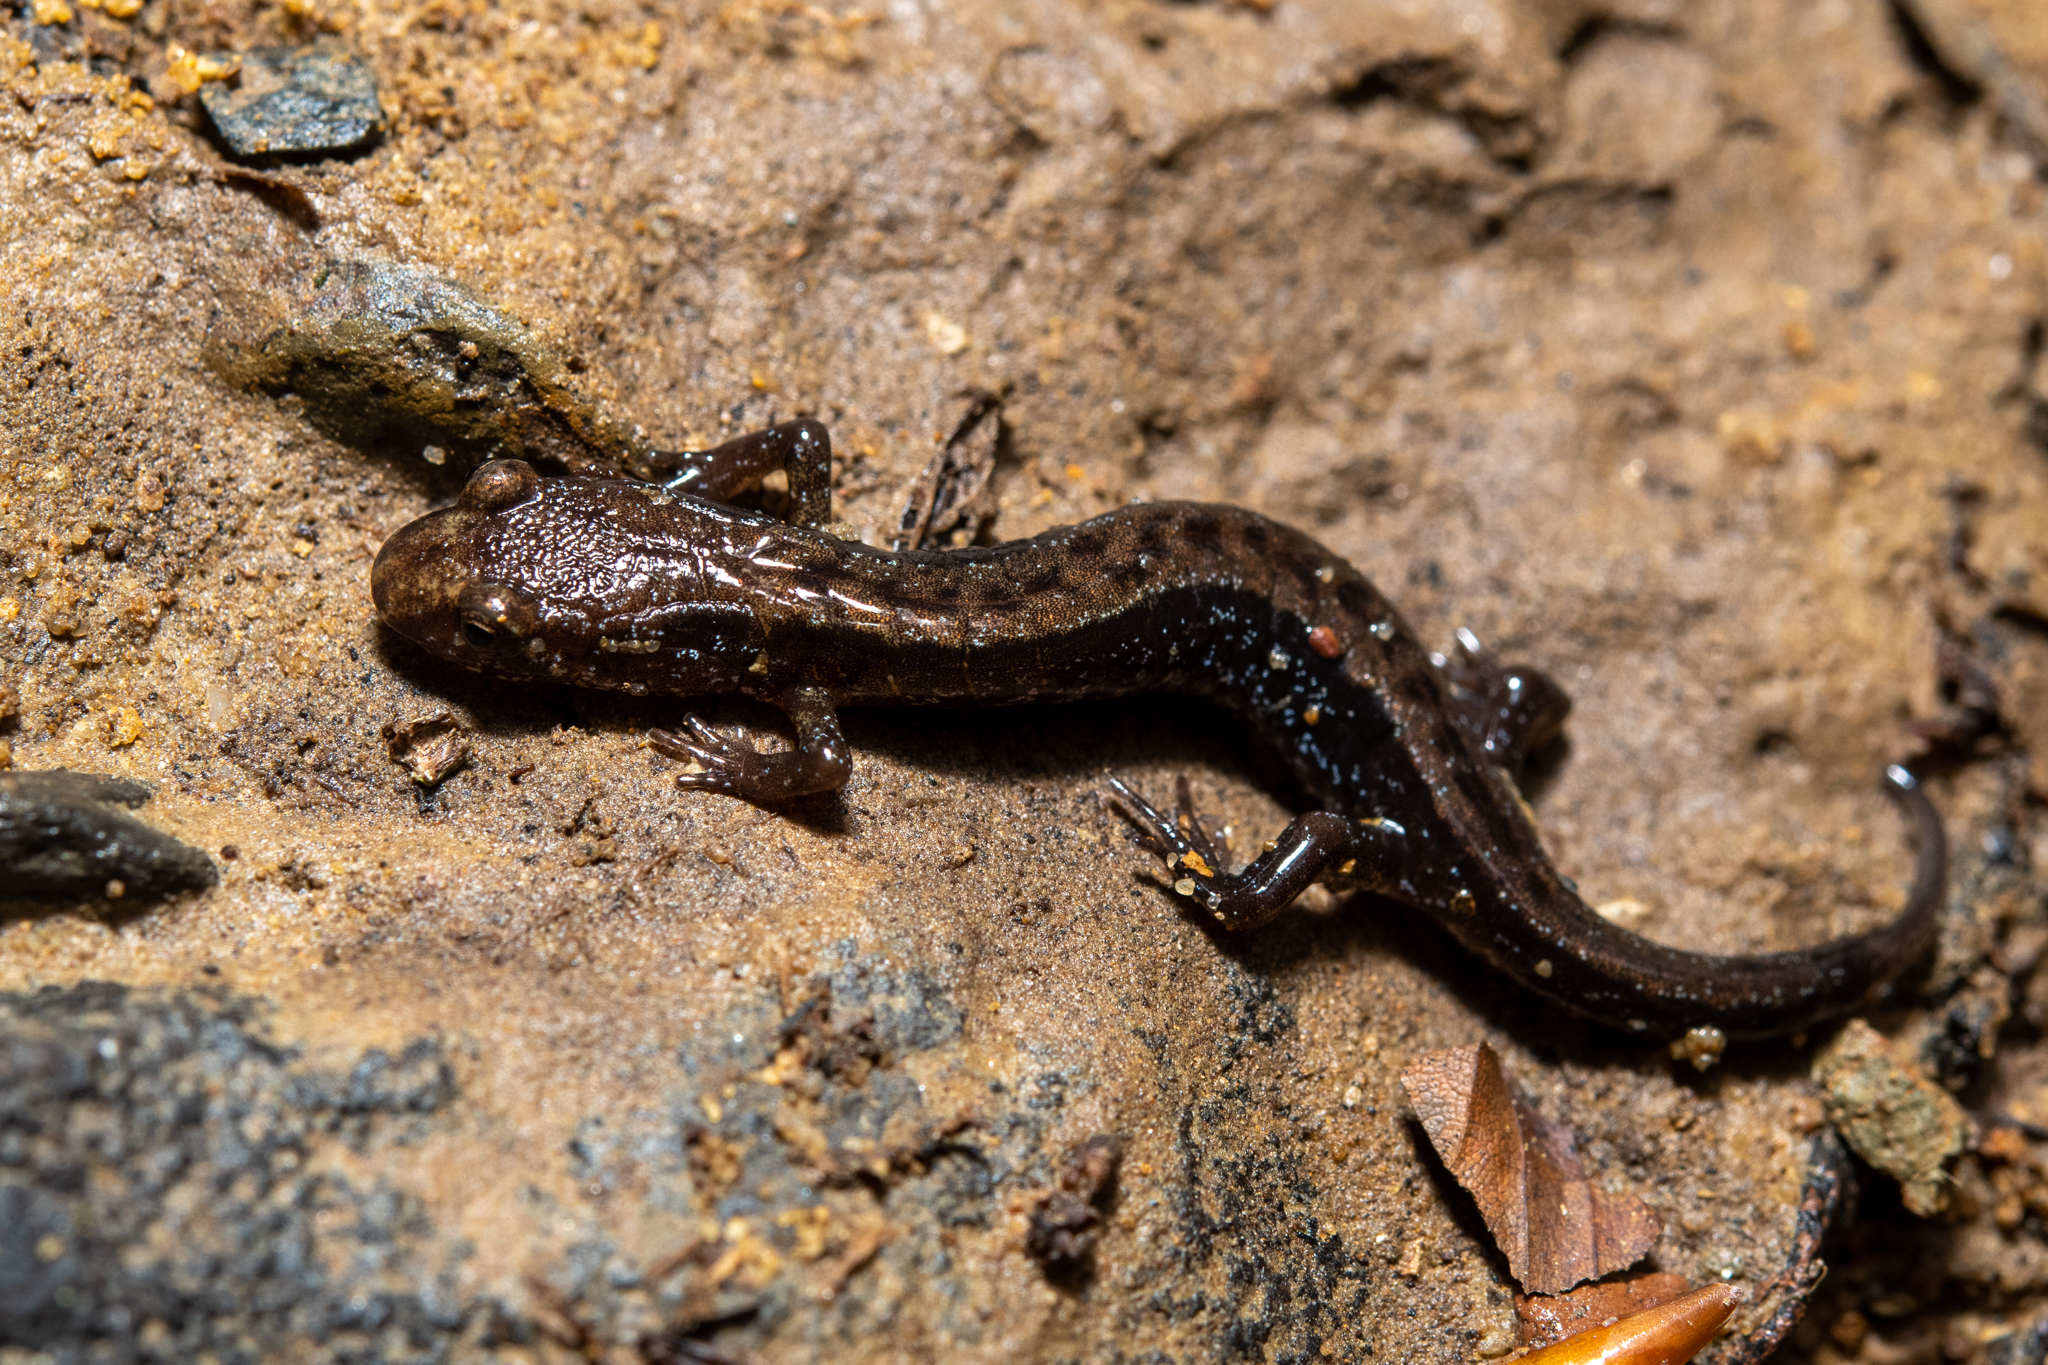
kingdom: Animalia
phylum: Chordata
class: Amphibia
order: Caudata
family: Plethodontidae
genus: Desmognathus
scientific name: Desmognathus ochrophaeus
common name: Allegheny mountain dusky salamander
